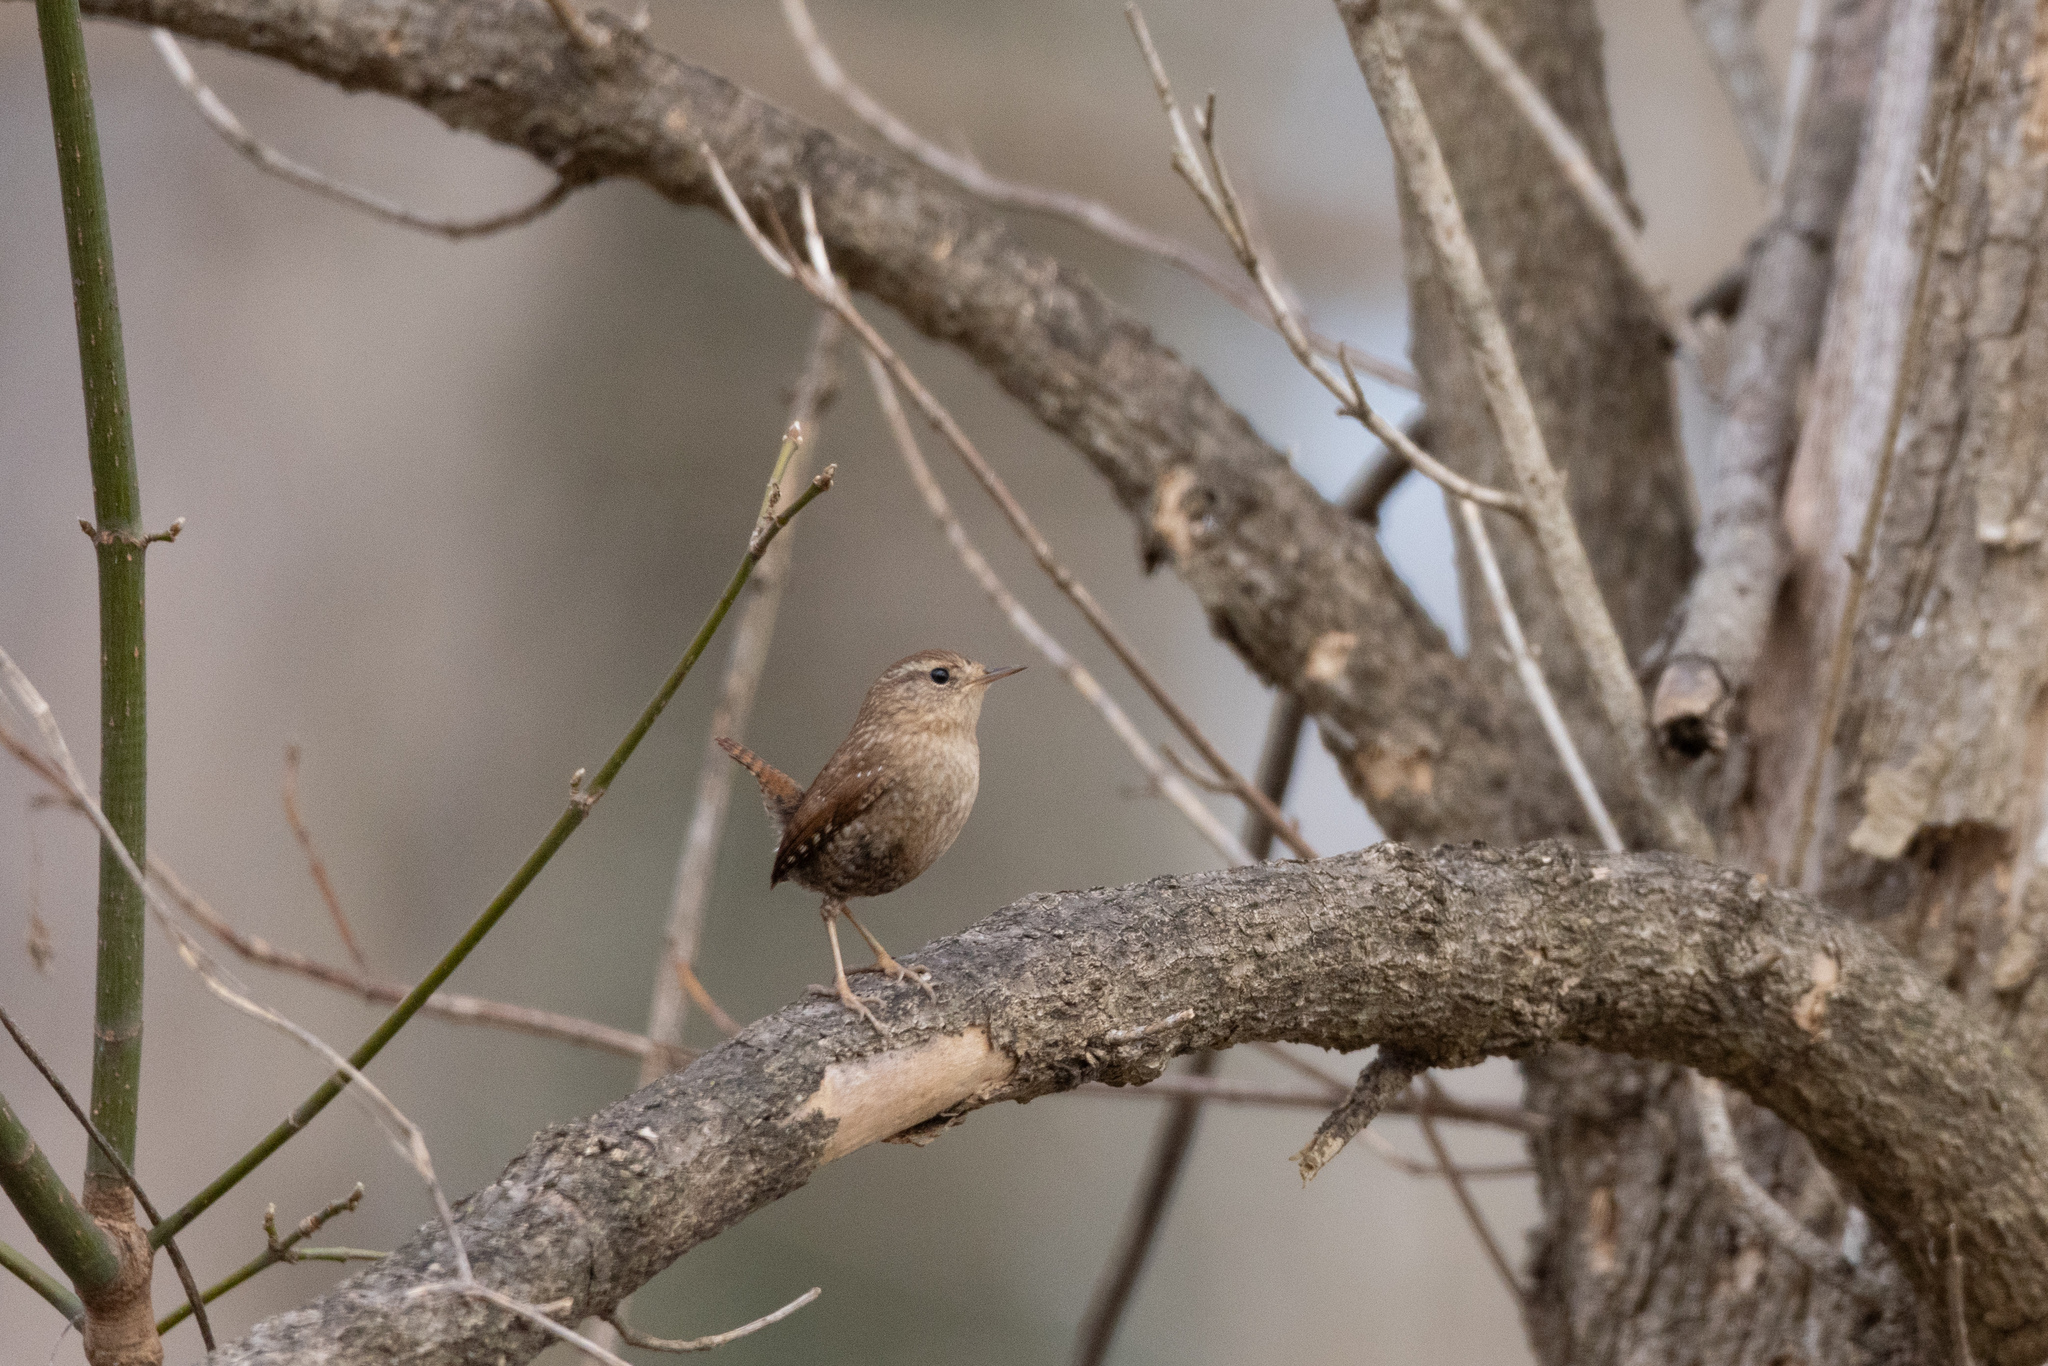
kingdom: Animalia
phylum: Chordata
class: Aves
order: Passeriformes
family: Troglodytidae
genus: Troglodytes
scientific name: Troglodytes hiemalis
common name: Winter wren
